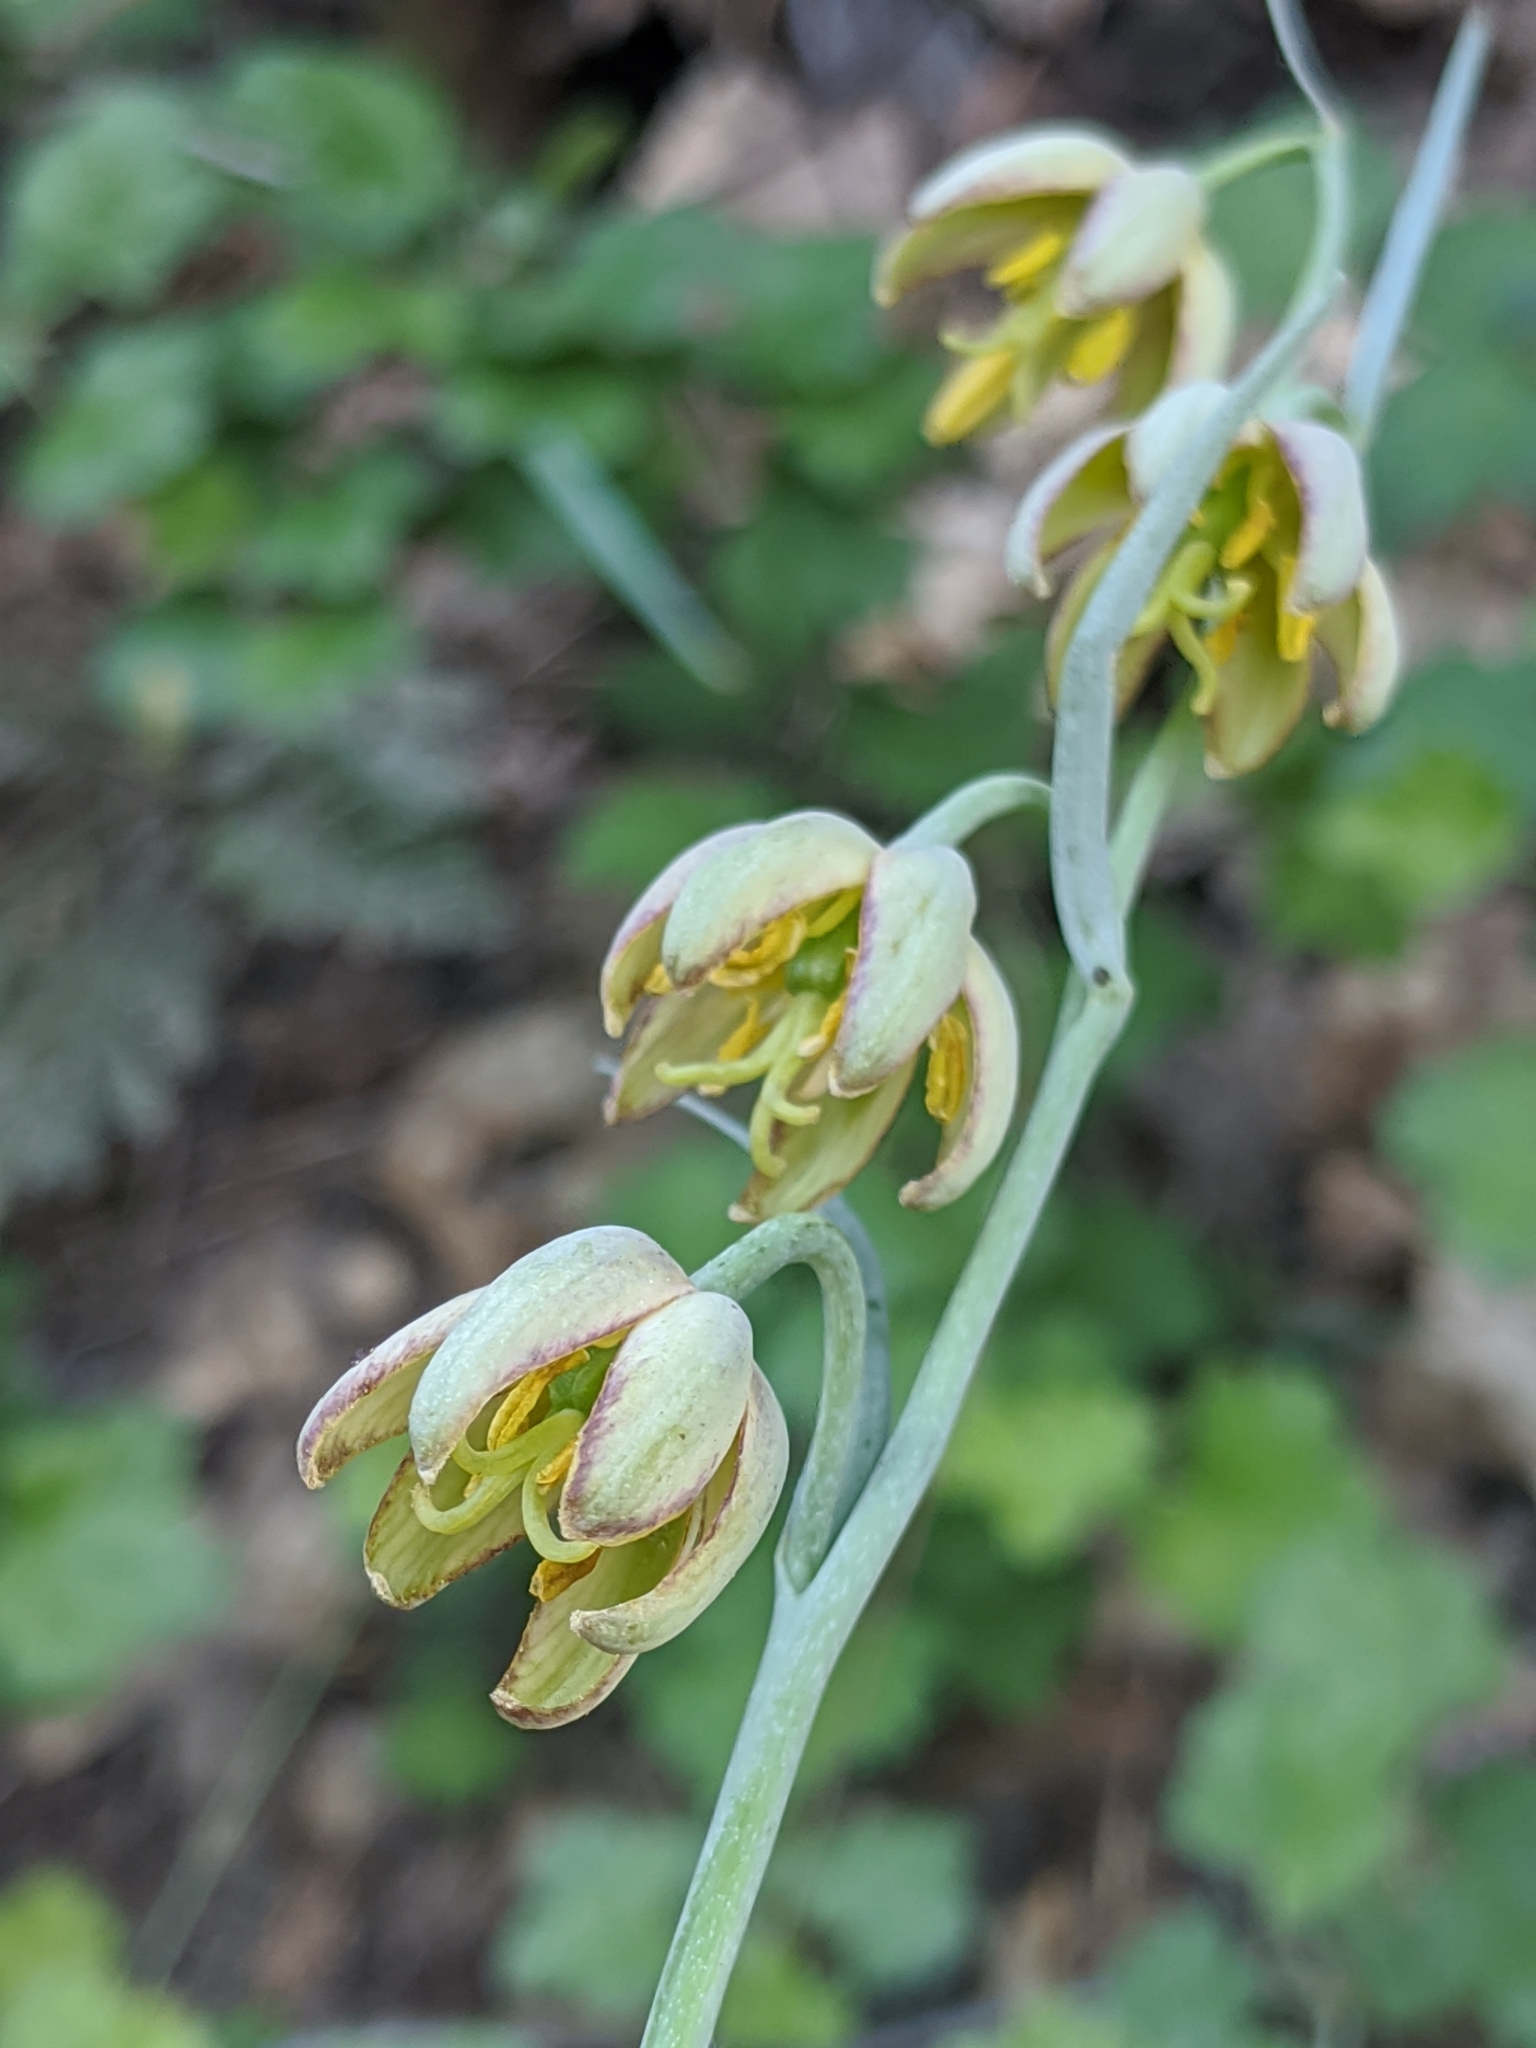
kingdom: Plantae
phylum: Tracheophyta
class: Liliopsida
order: Liliales
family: Liliaceae
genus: Fritillaria
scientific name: Fritillaria micrantha
